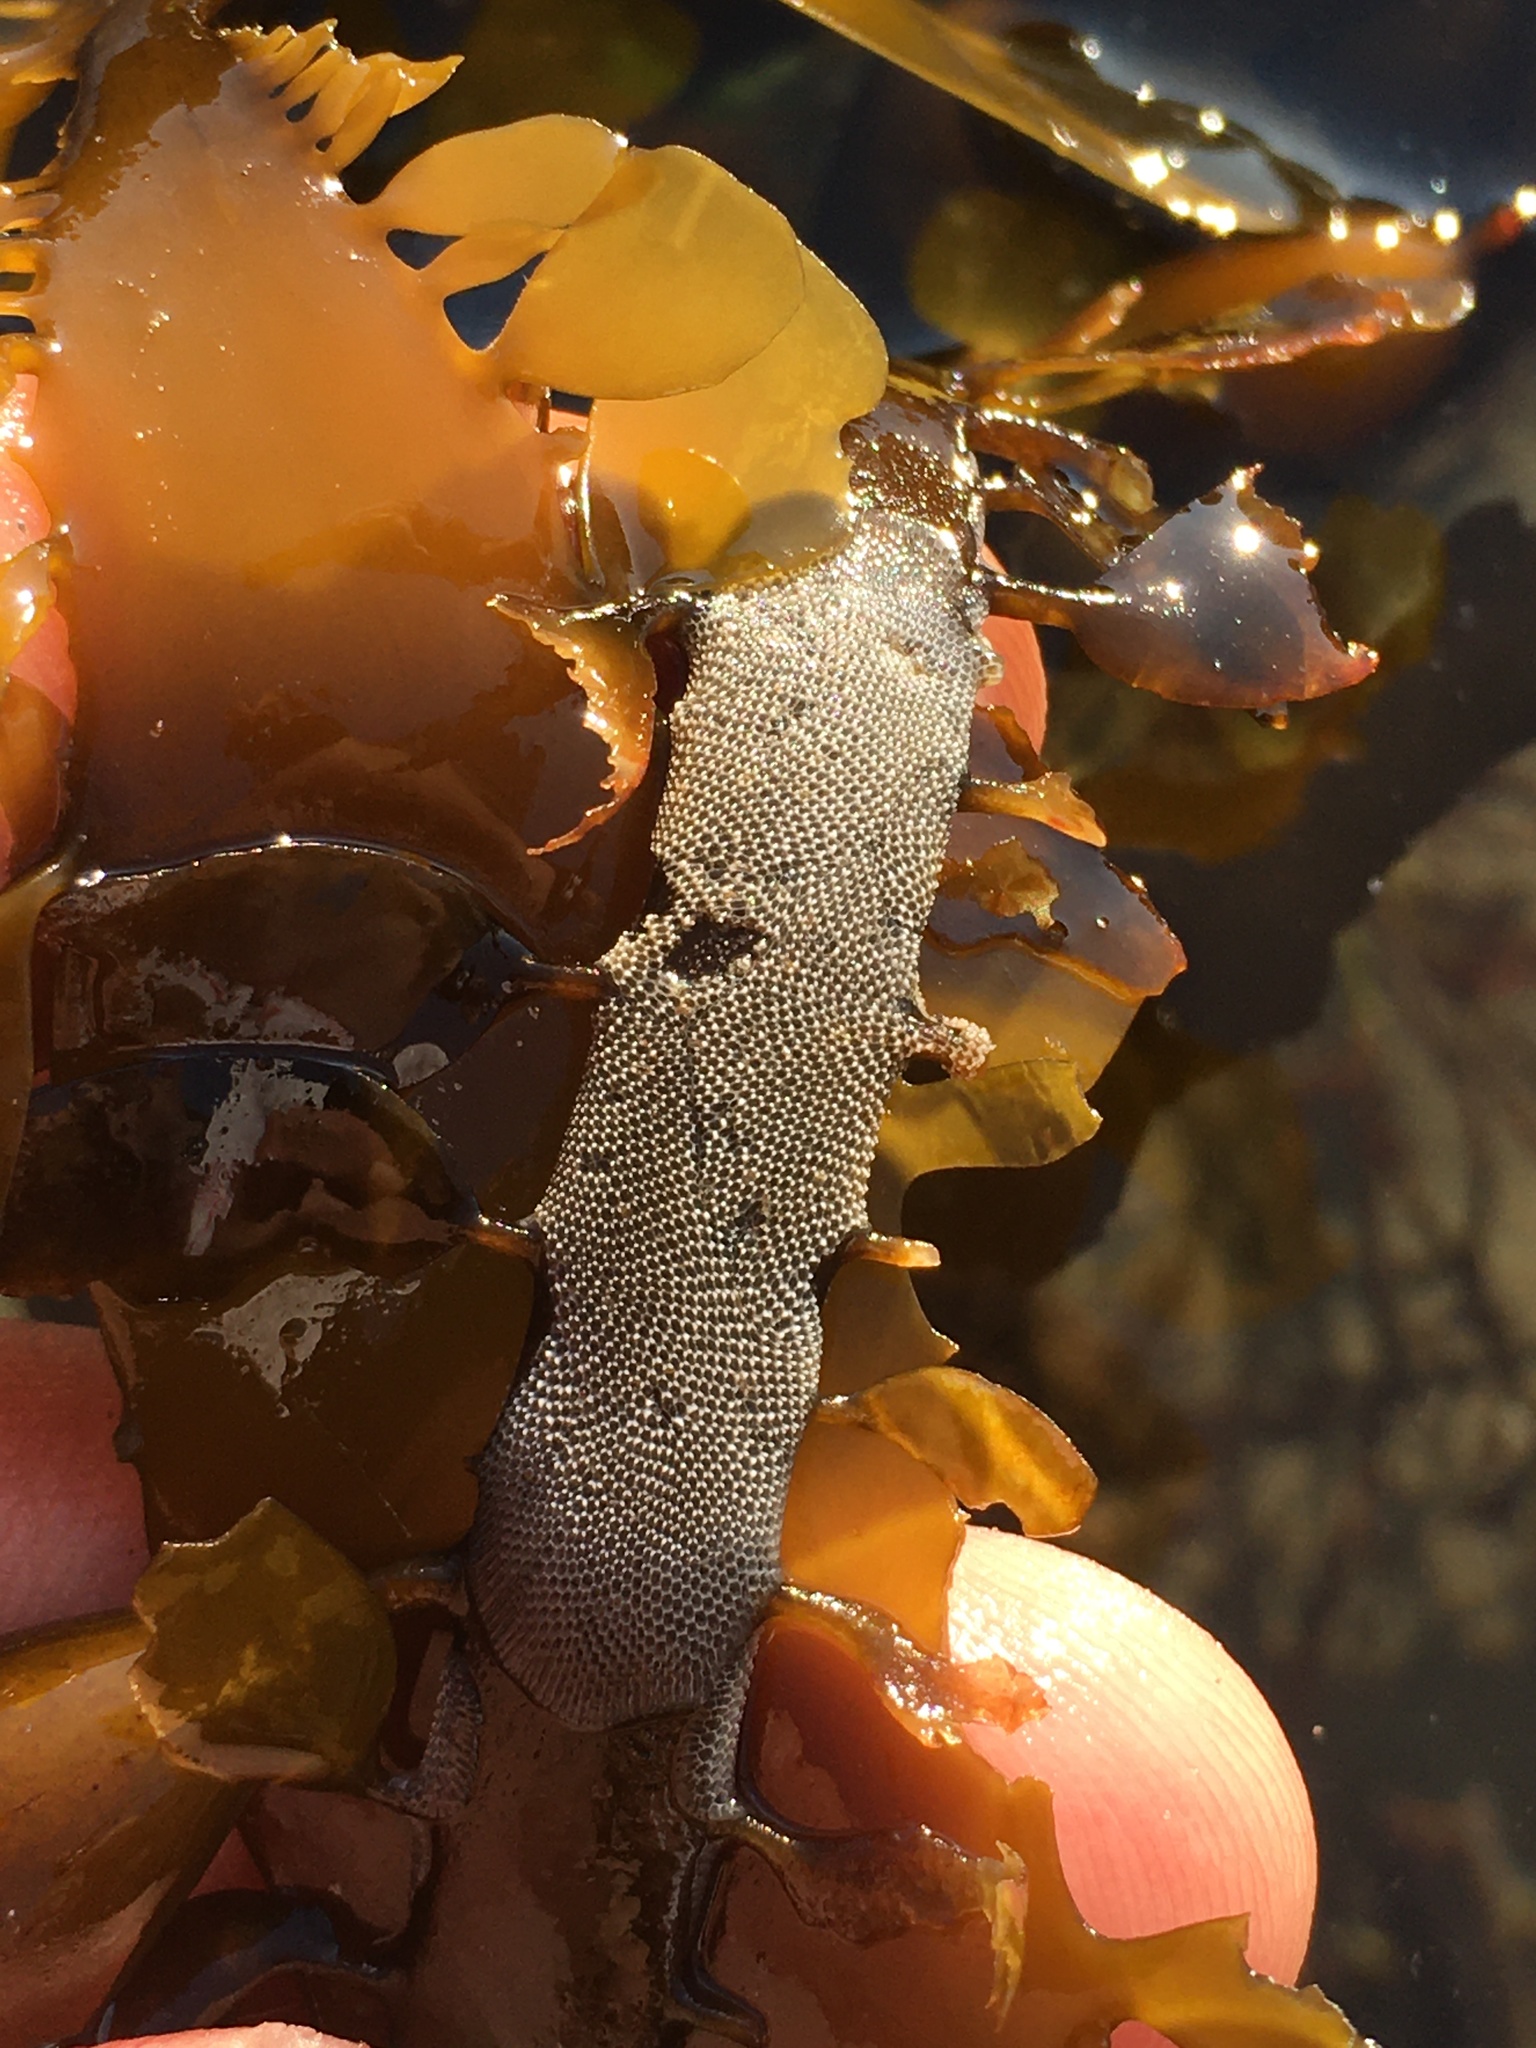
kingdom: Animalia
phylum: Bryozoa
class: Gymnolaemata
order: Cheilostomatida
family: Membraniporidae
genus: Jellyella
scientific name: Jellyella tuberculata
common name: Sargassum bryozoan
